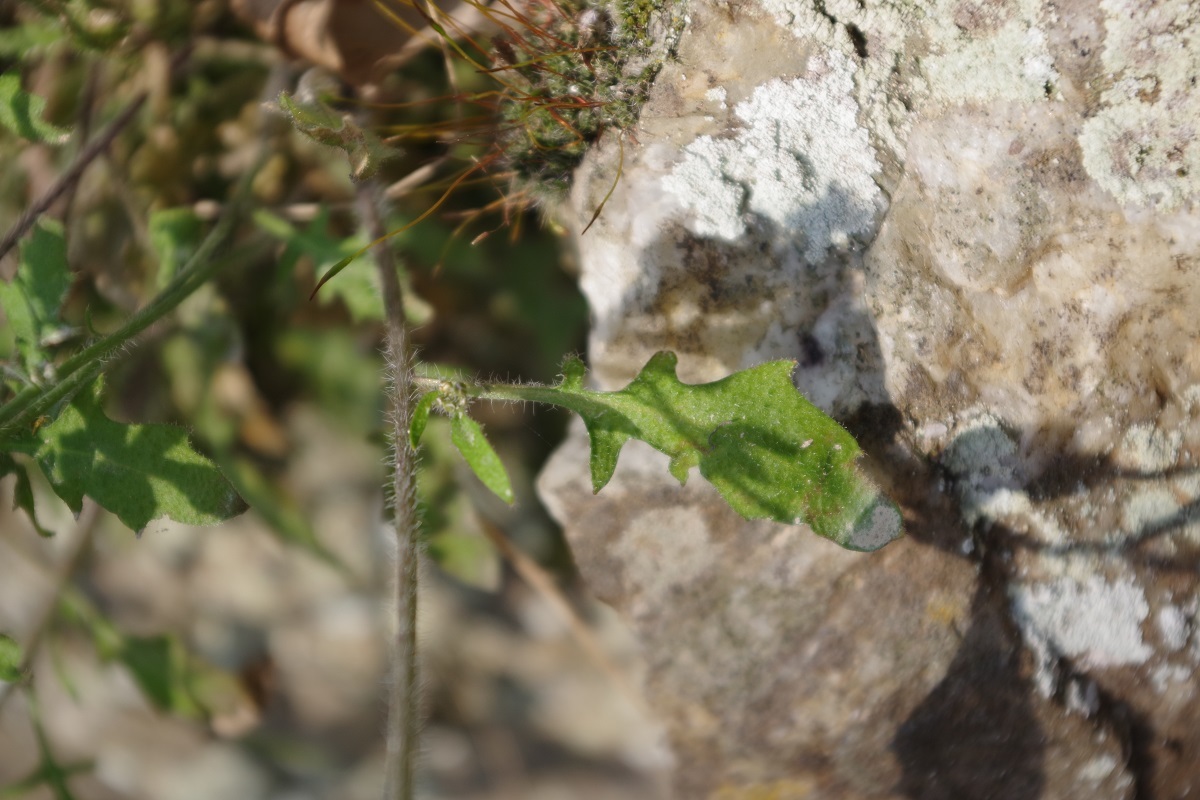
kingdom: Plantae
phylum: Tracheophyta
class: Magnoliopsida
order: Brassicales
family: Brassicaceae
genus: Arabidopsis
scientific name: Arabidopsis arenosa
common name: Sand rock-cress
